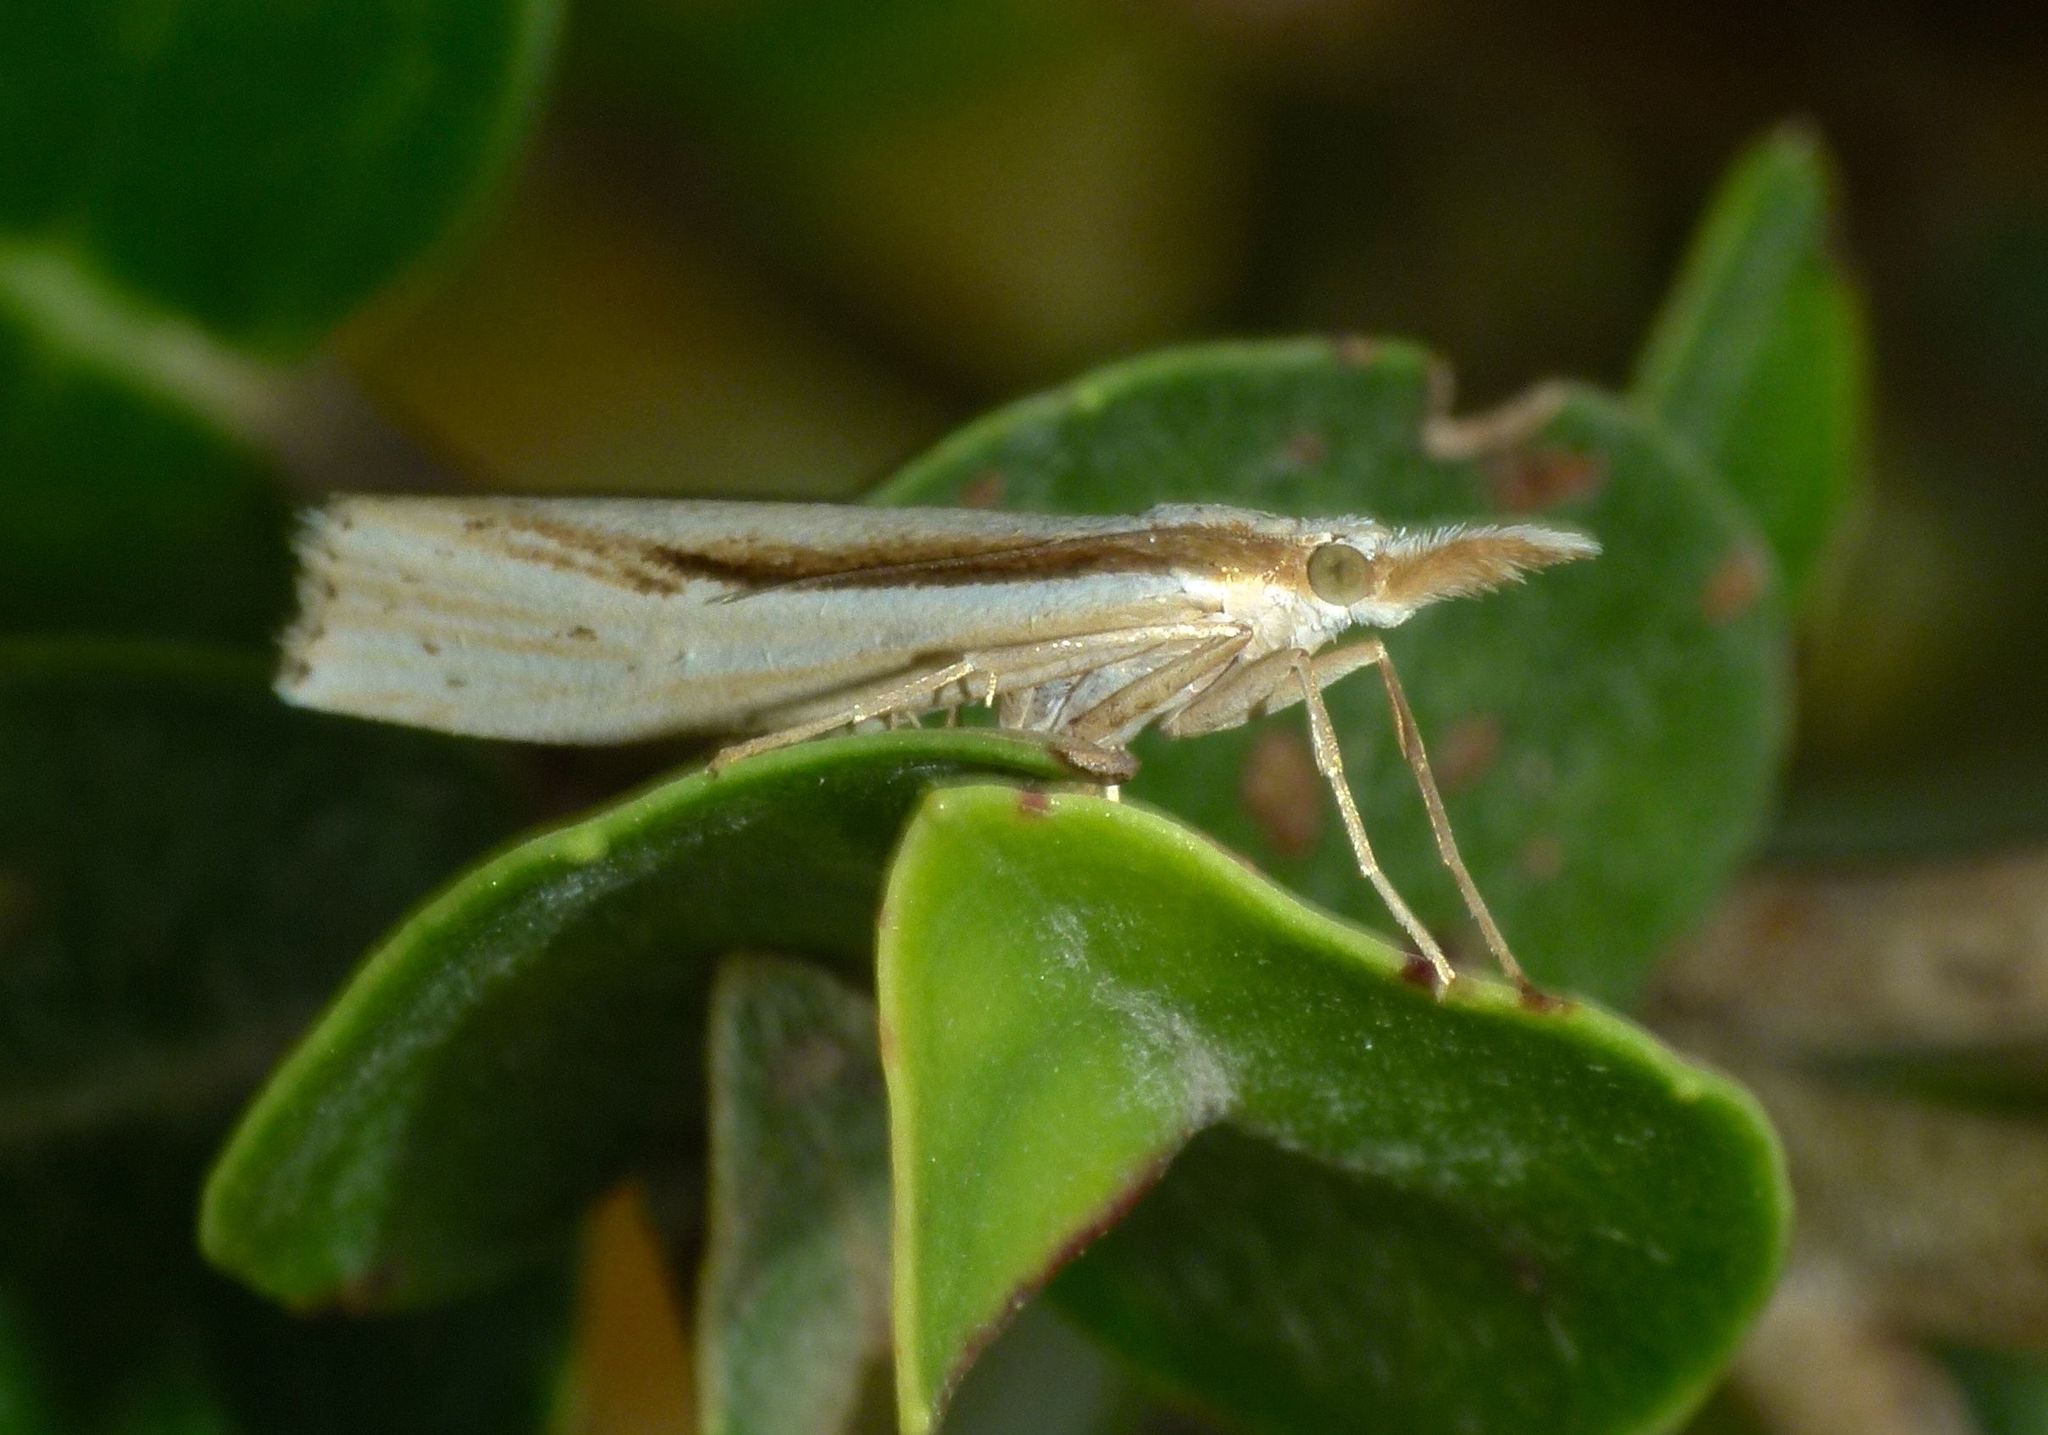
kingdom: Animalia
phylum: Arthropoda
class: Insecta
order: Lepidoptera
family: Crambidae
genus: Orocrambus
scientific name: Orocrambus ramosellus
